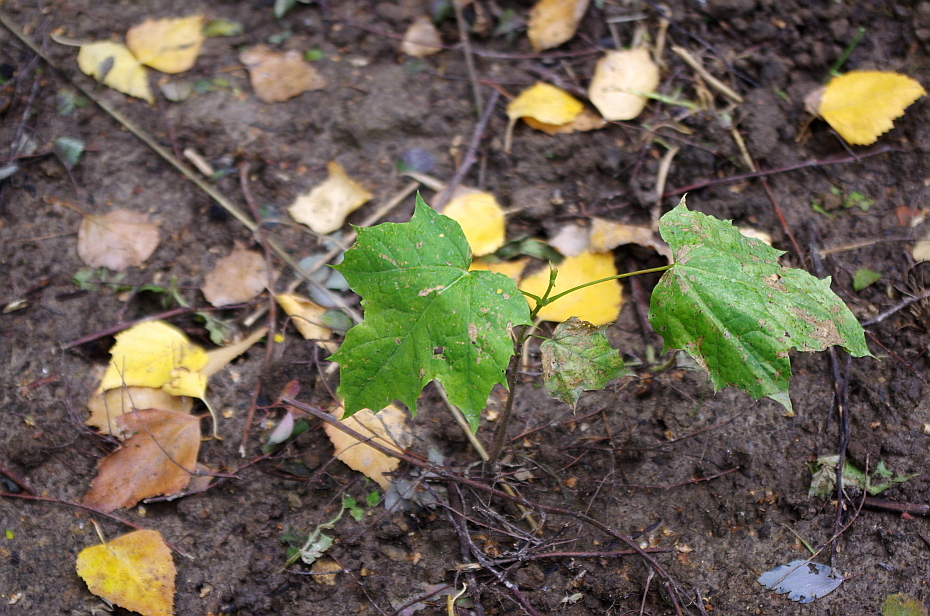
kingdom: Plantae
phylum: Tracheophyta
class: Magnoliopsida
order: Sapindales
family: Sapindaceae
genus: Acer
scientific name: Acer platanoides
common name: Norway maple
